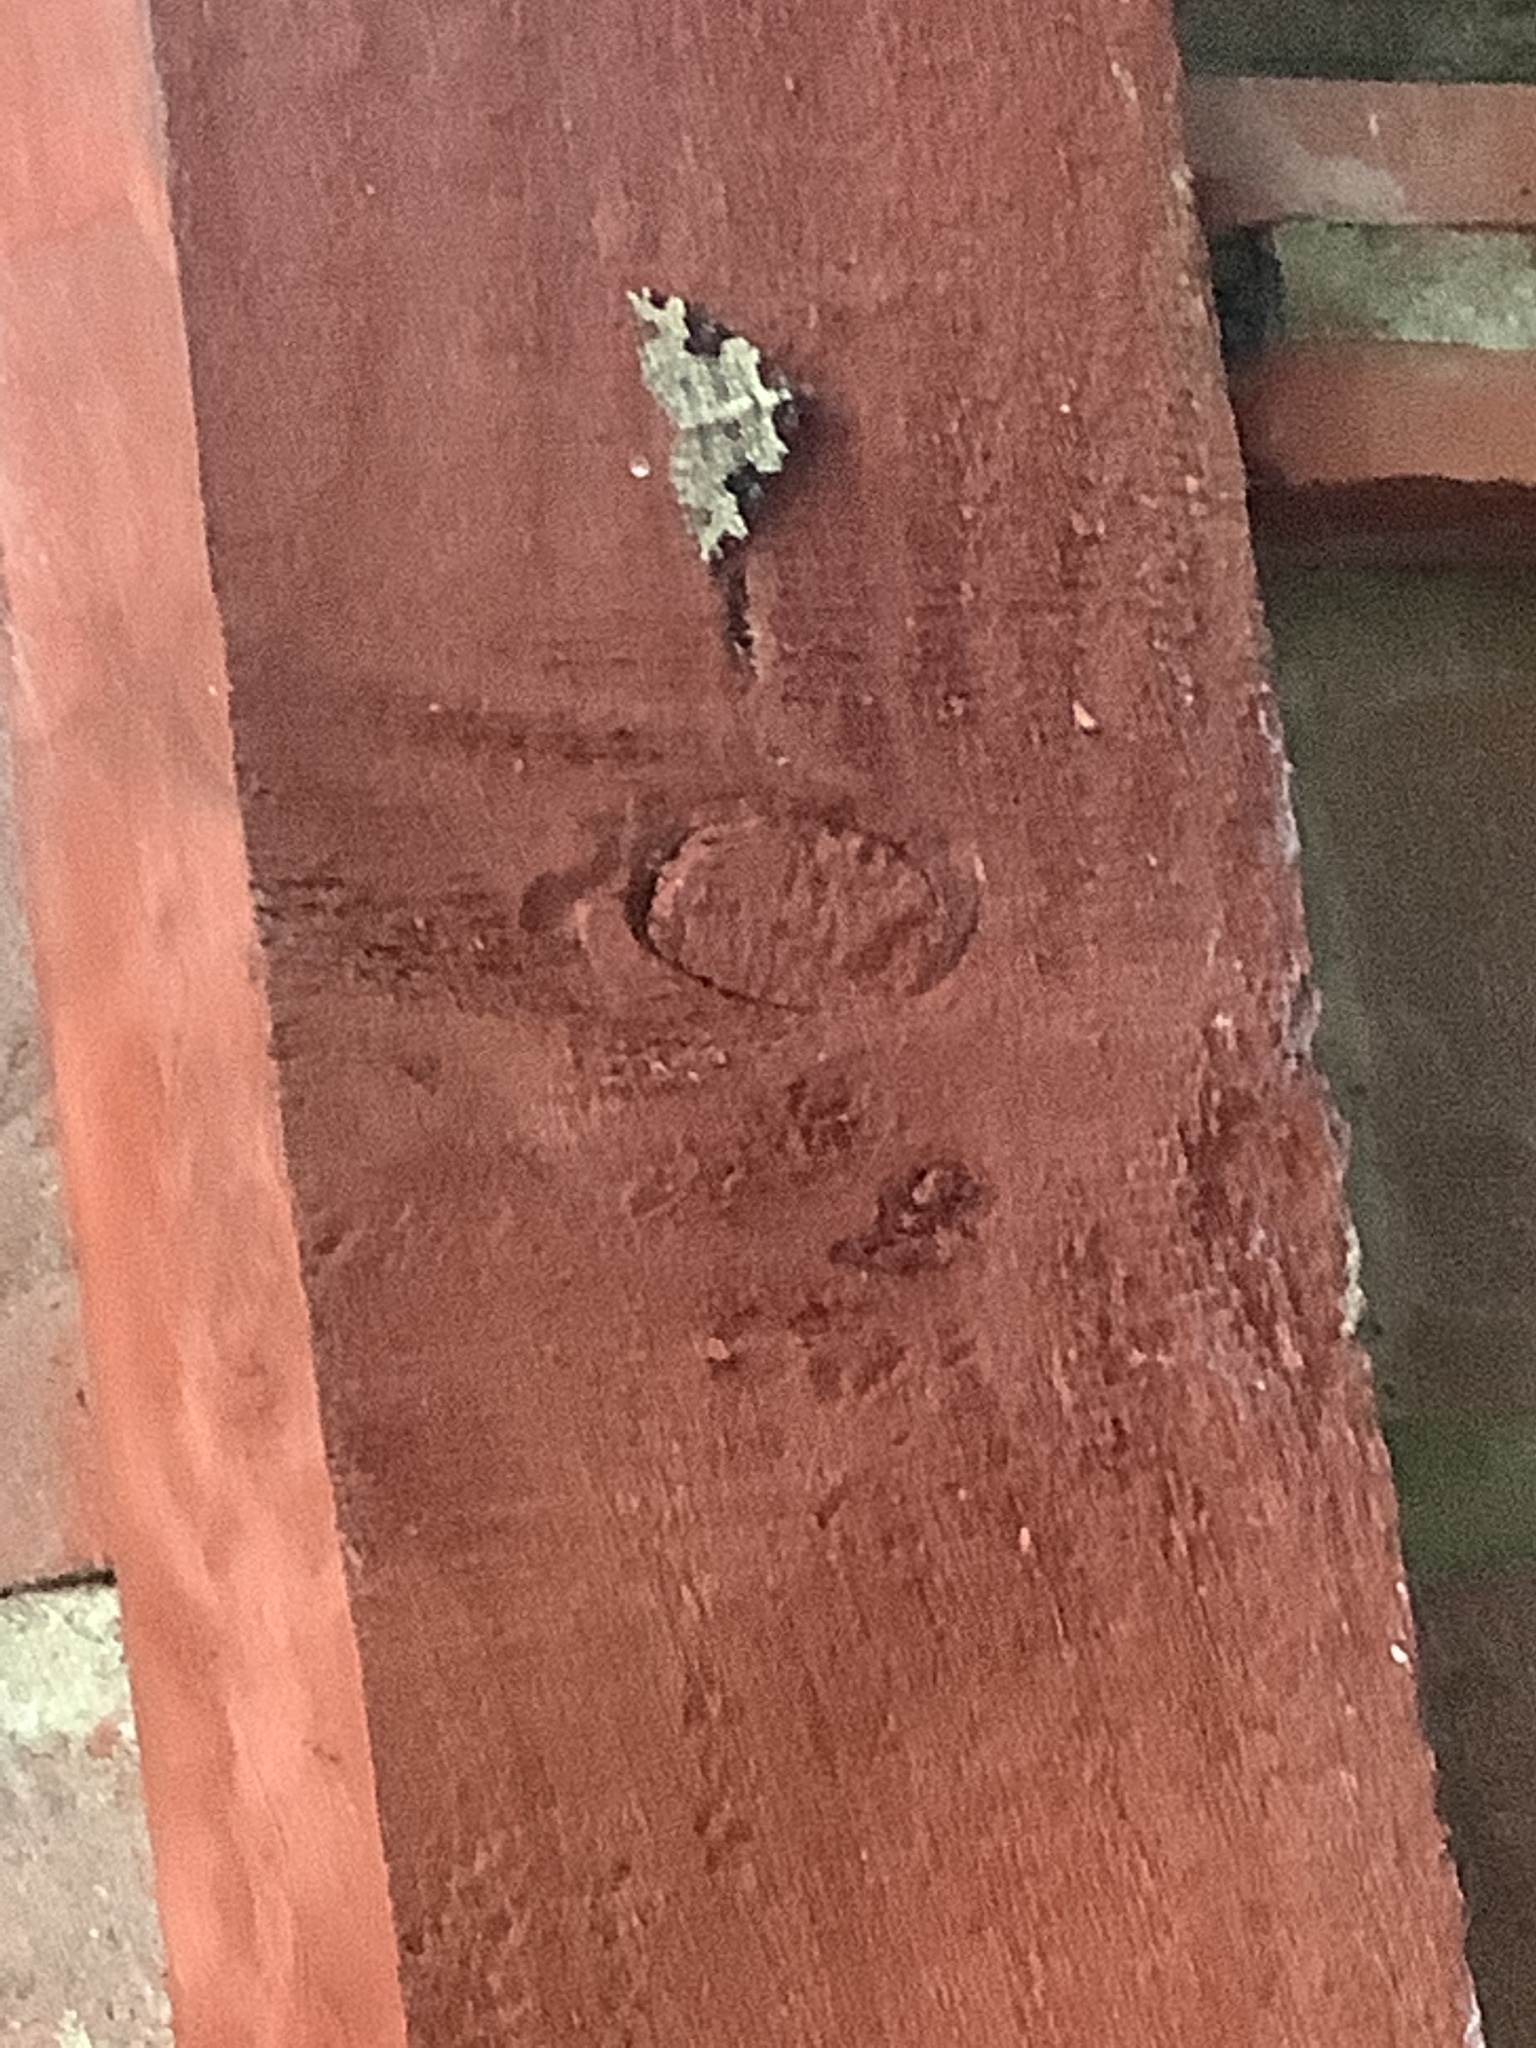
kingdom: Animalia
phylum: Arthropoda
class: Insecta
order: Lepidoptera
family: Geometridae
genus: Xanthorhoe
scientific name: Xanthorhoe fluctuata
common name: Garden carpet
